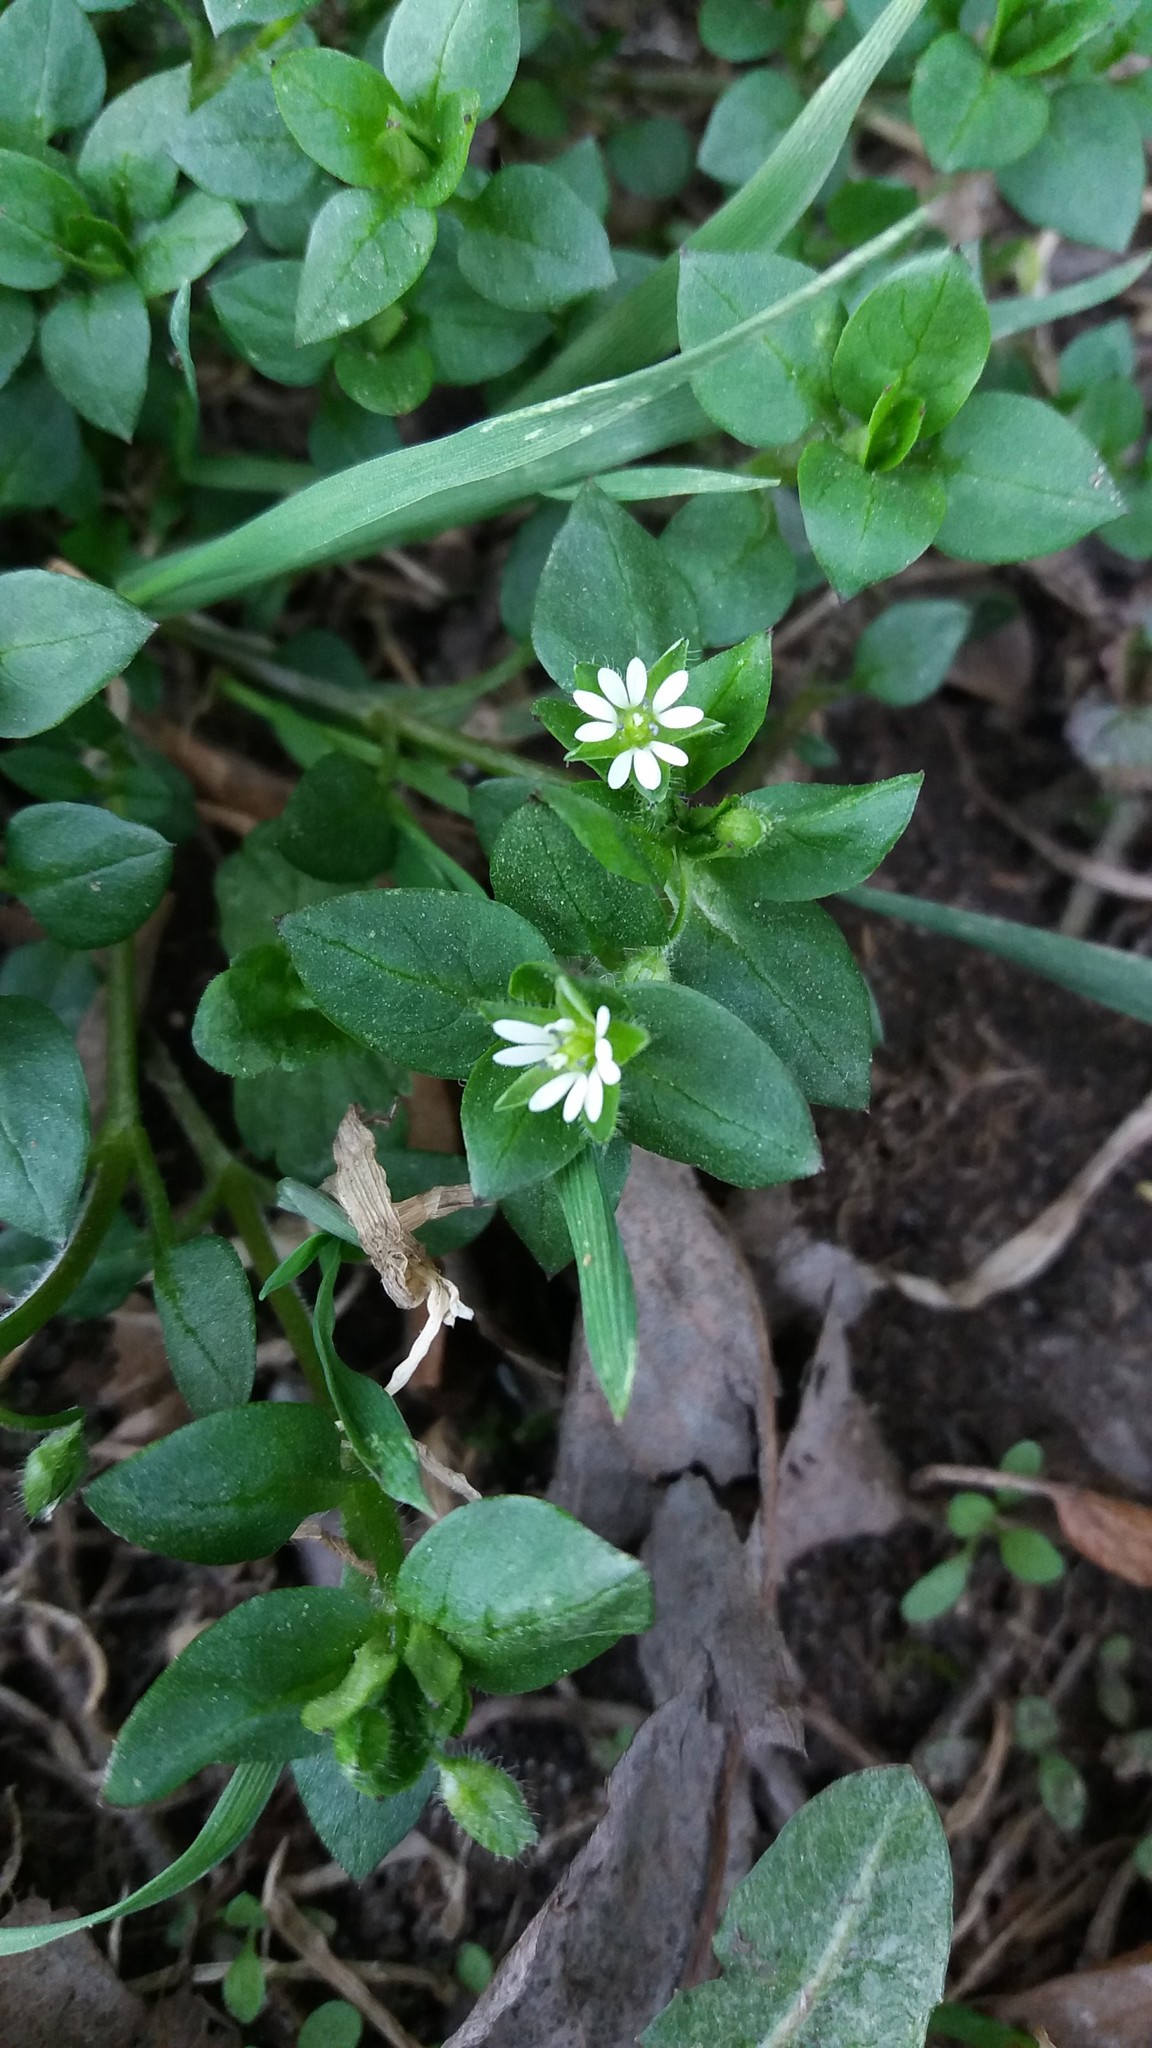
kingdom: Plantae
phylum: Tracheophyta
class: Magnoliopsida
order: Caryophyllales
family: Caryophyllaceae
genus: Stellaria
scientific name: Stellaria media
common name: Common chickweed
